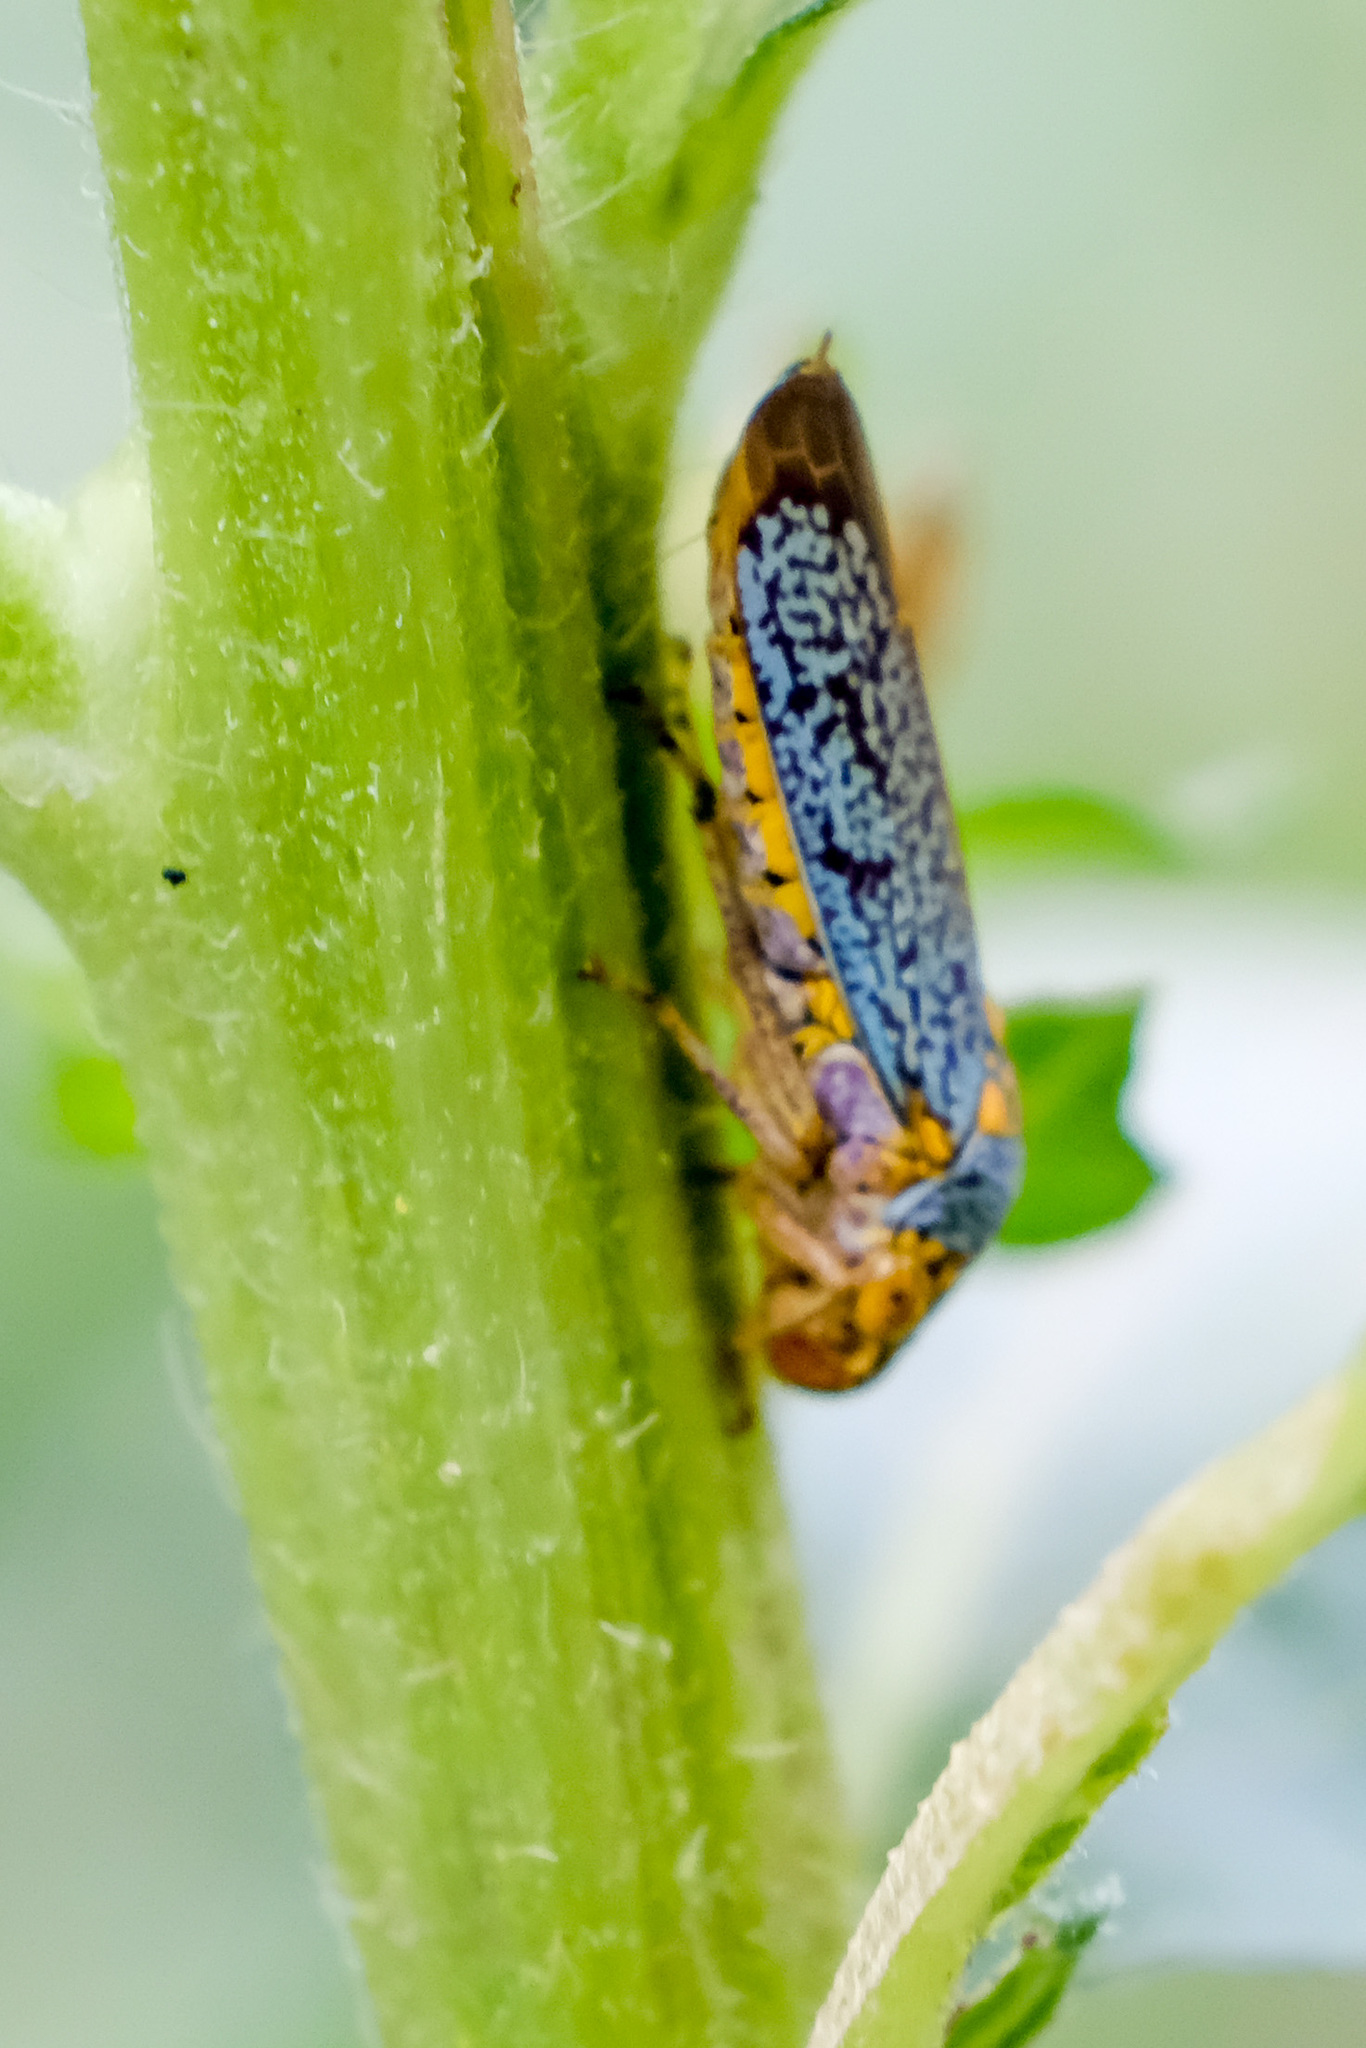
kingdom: Animalia
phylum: Arthropoda
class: Insecta
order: Hemiptera
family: Cicadellidae
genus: Oncometopia
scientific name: Oncometopia orbona
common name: Broad-headed sharpshooter
